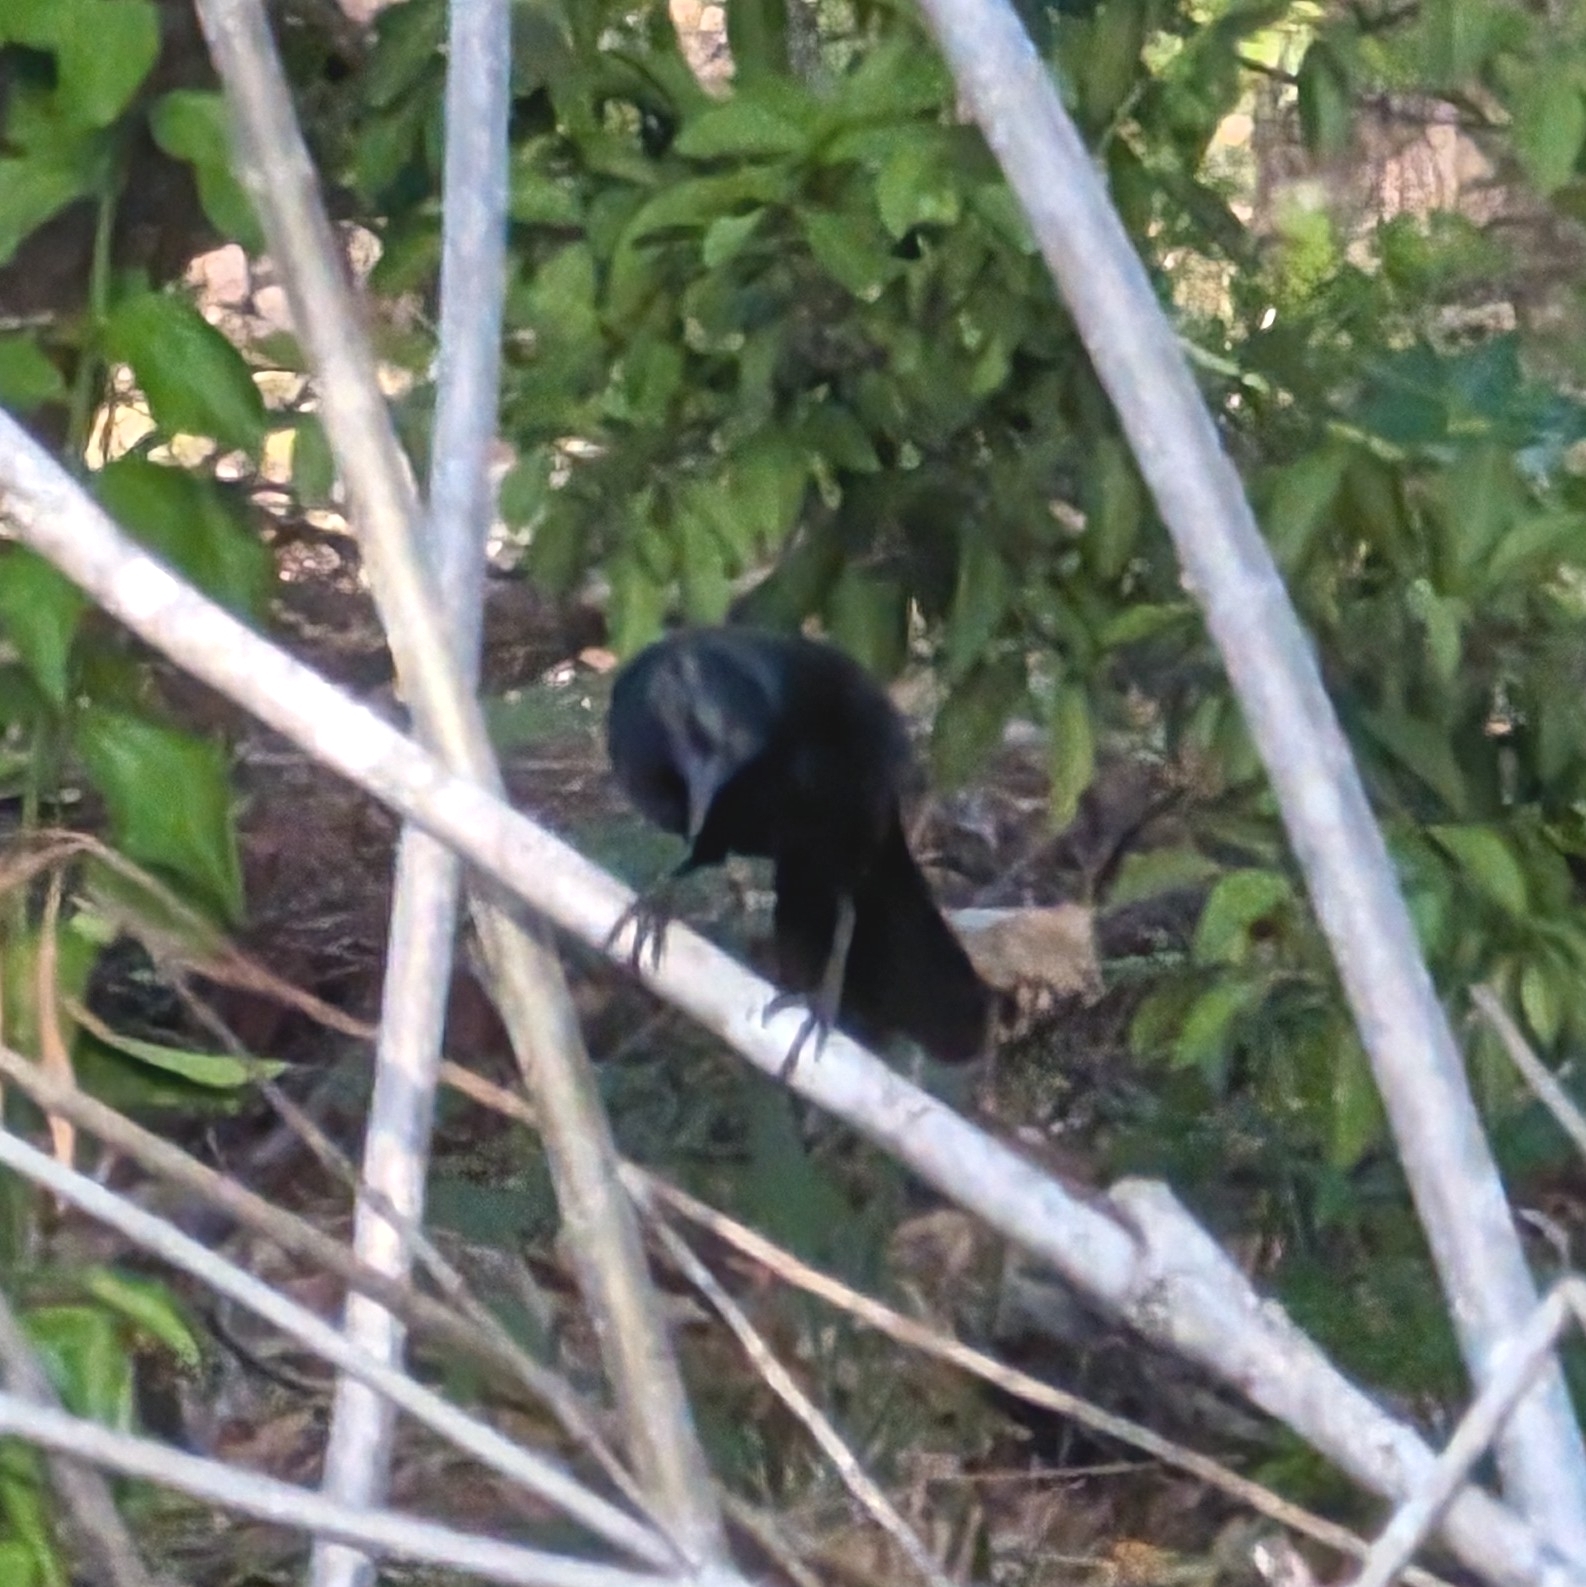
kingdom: Animalia
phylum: Chordata
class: Aves
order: Passeriformes
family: Icteridae
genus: Dives
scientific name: Dives dives
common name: Melodious blackbird
